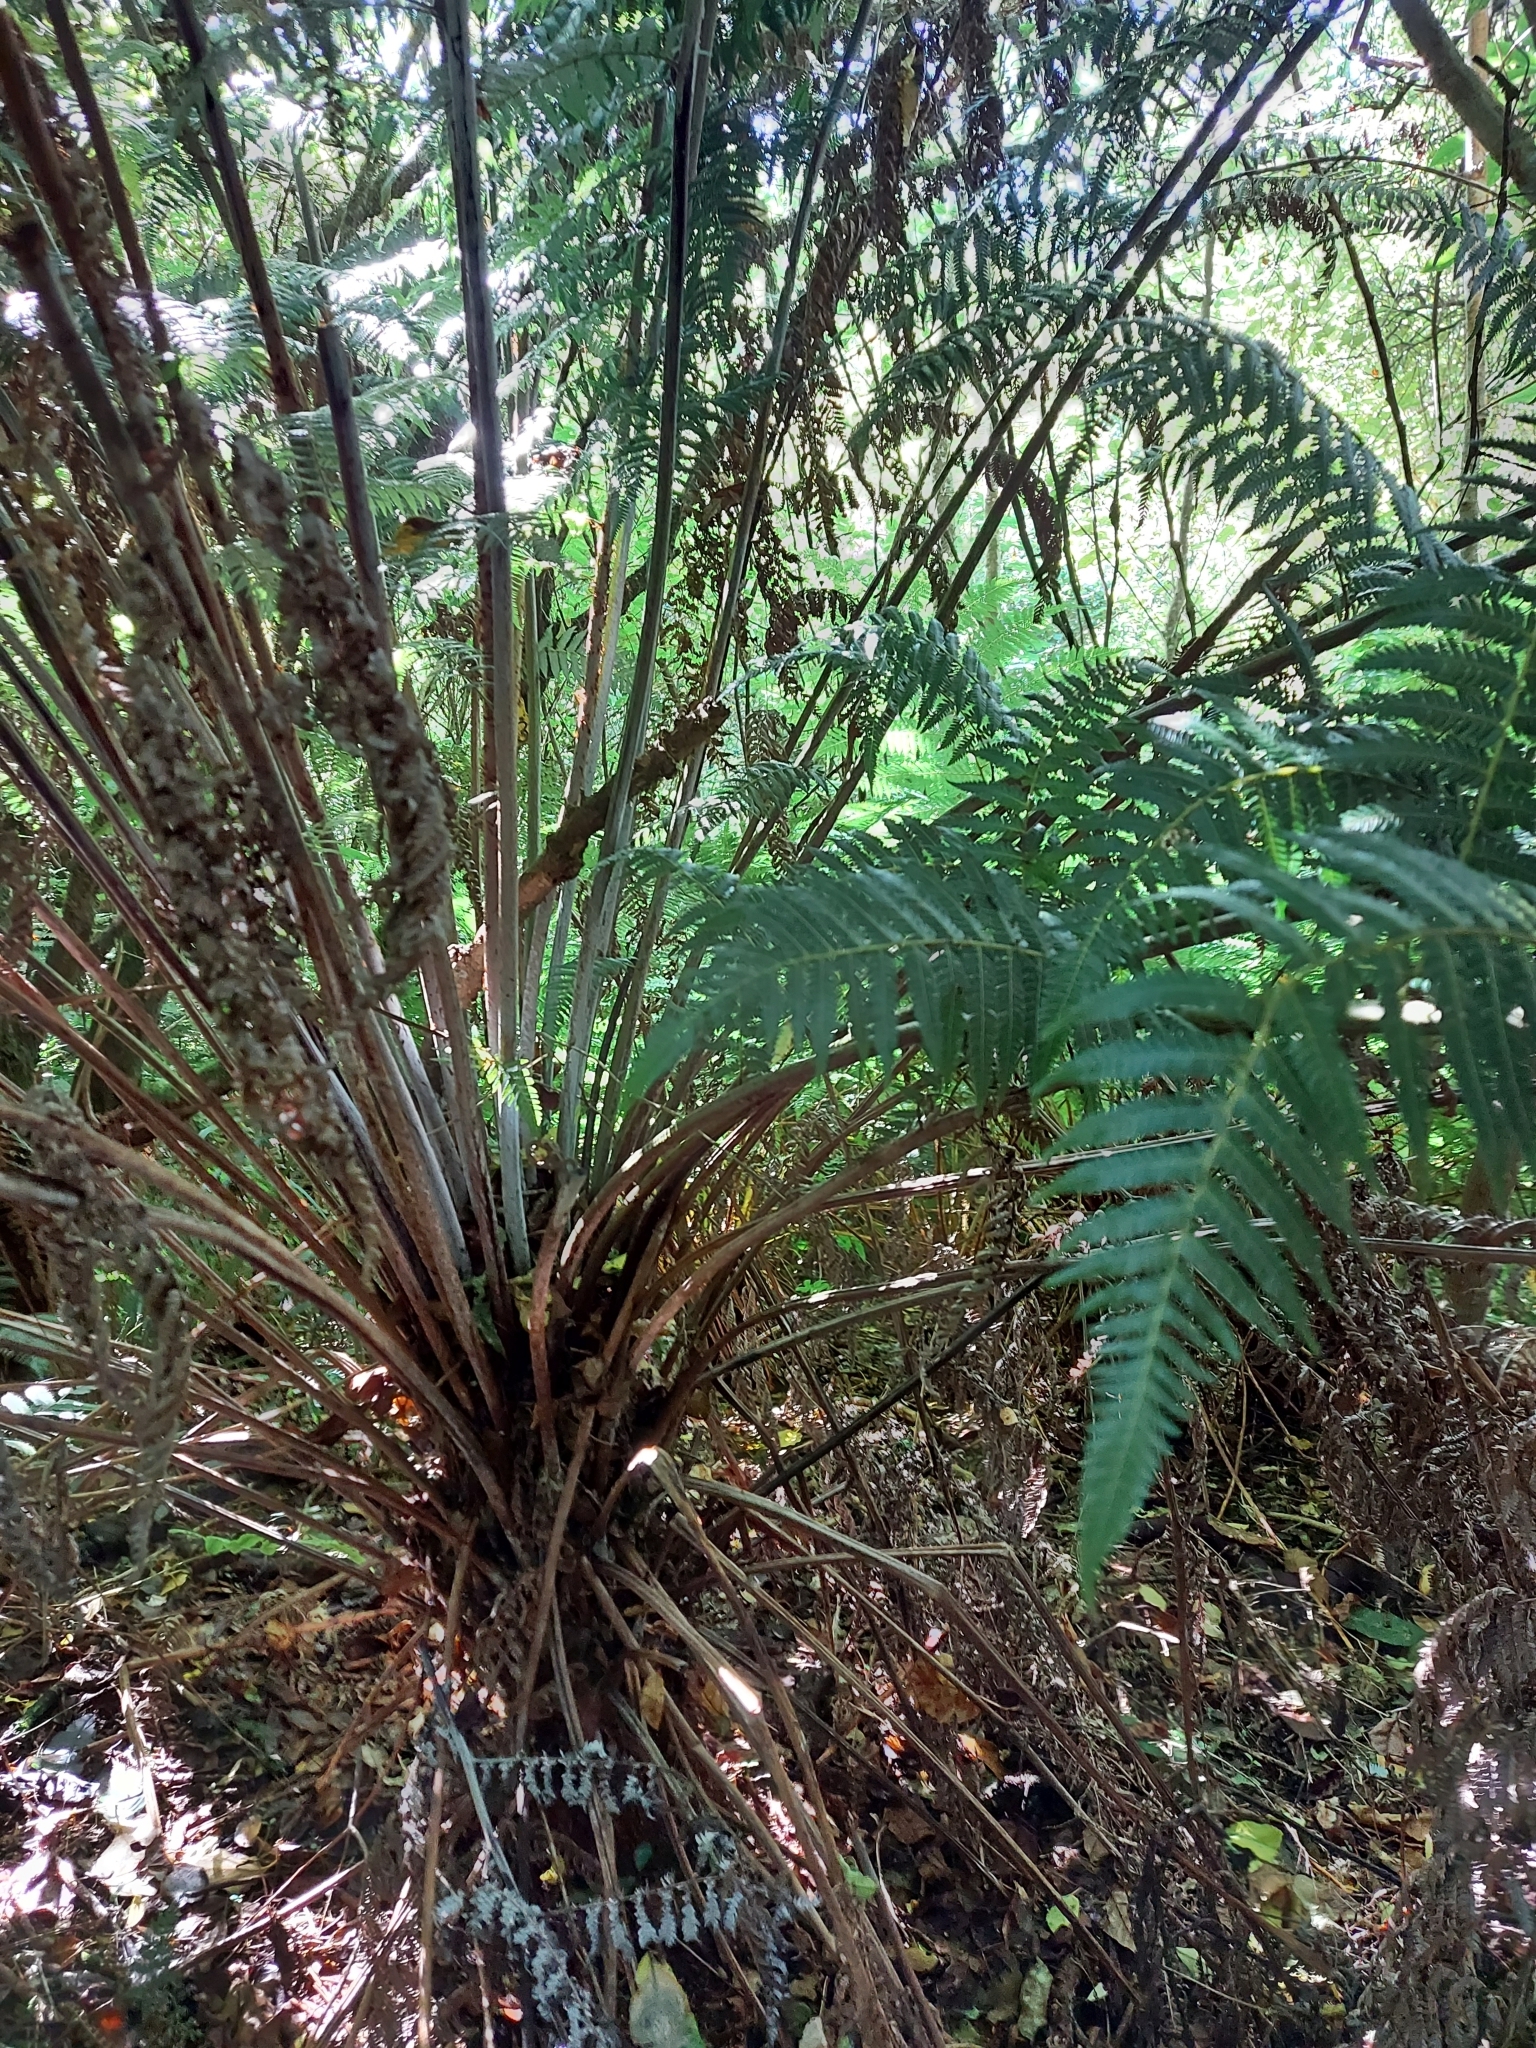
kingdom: Plantae
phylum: Tracheophyta
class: Polypodiopsida
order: Cyatheales
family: Cyatheaceae
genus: Alsophila
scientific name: Alsophila dealbata
